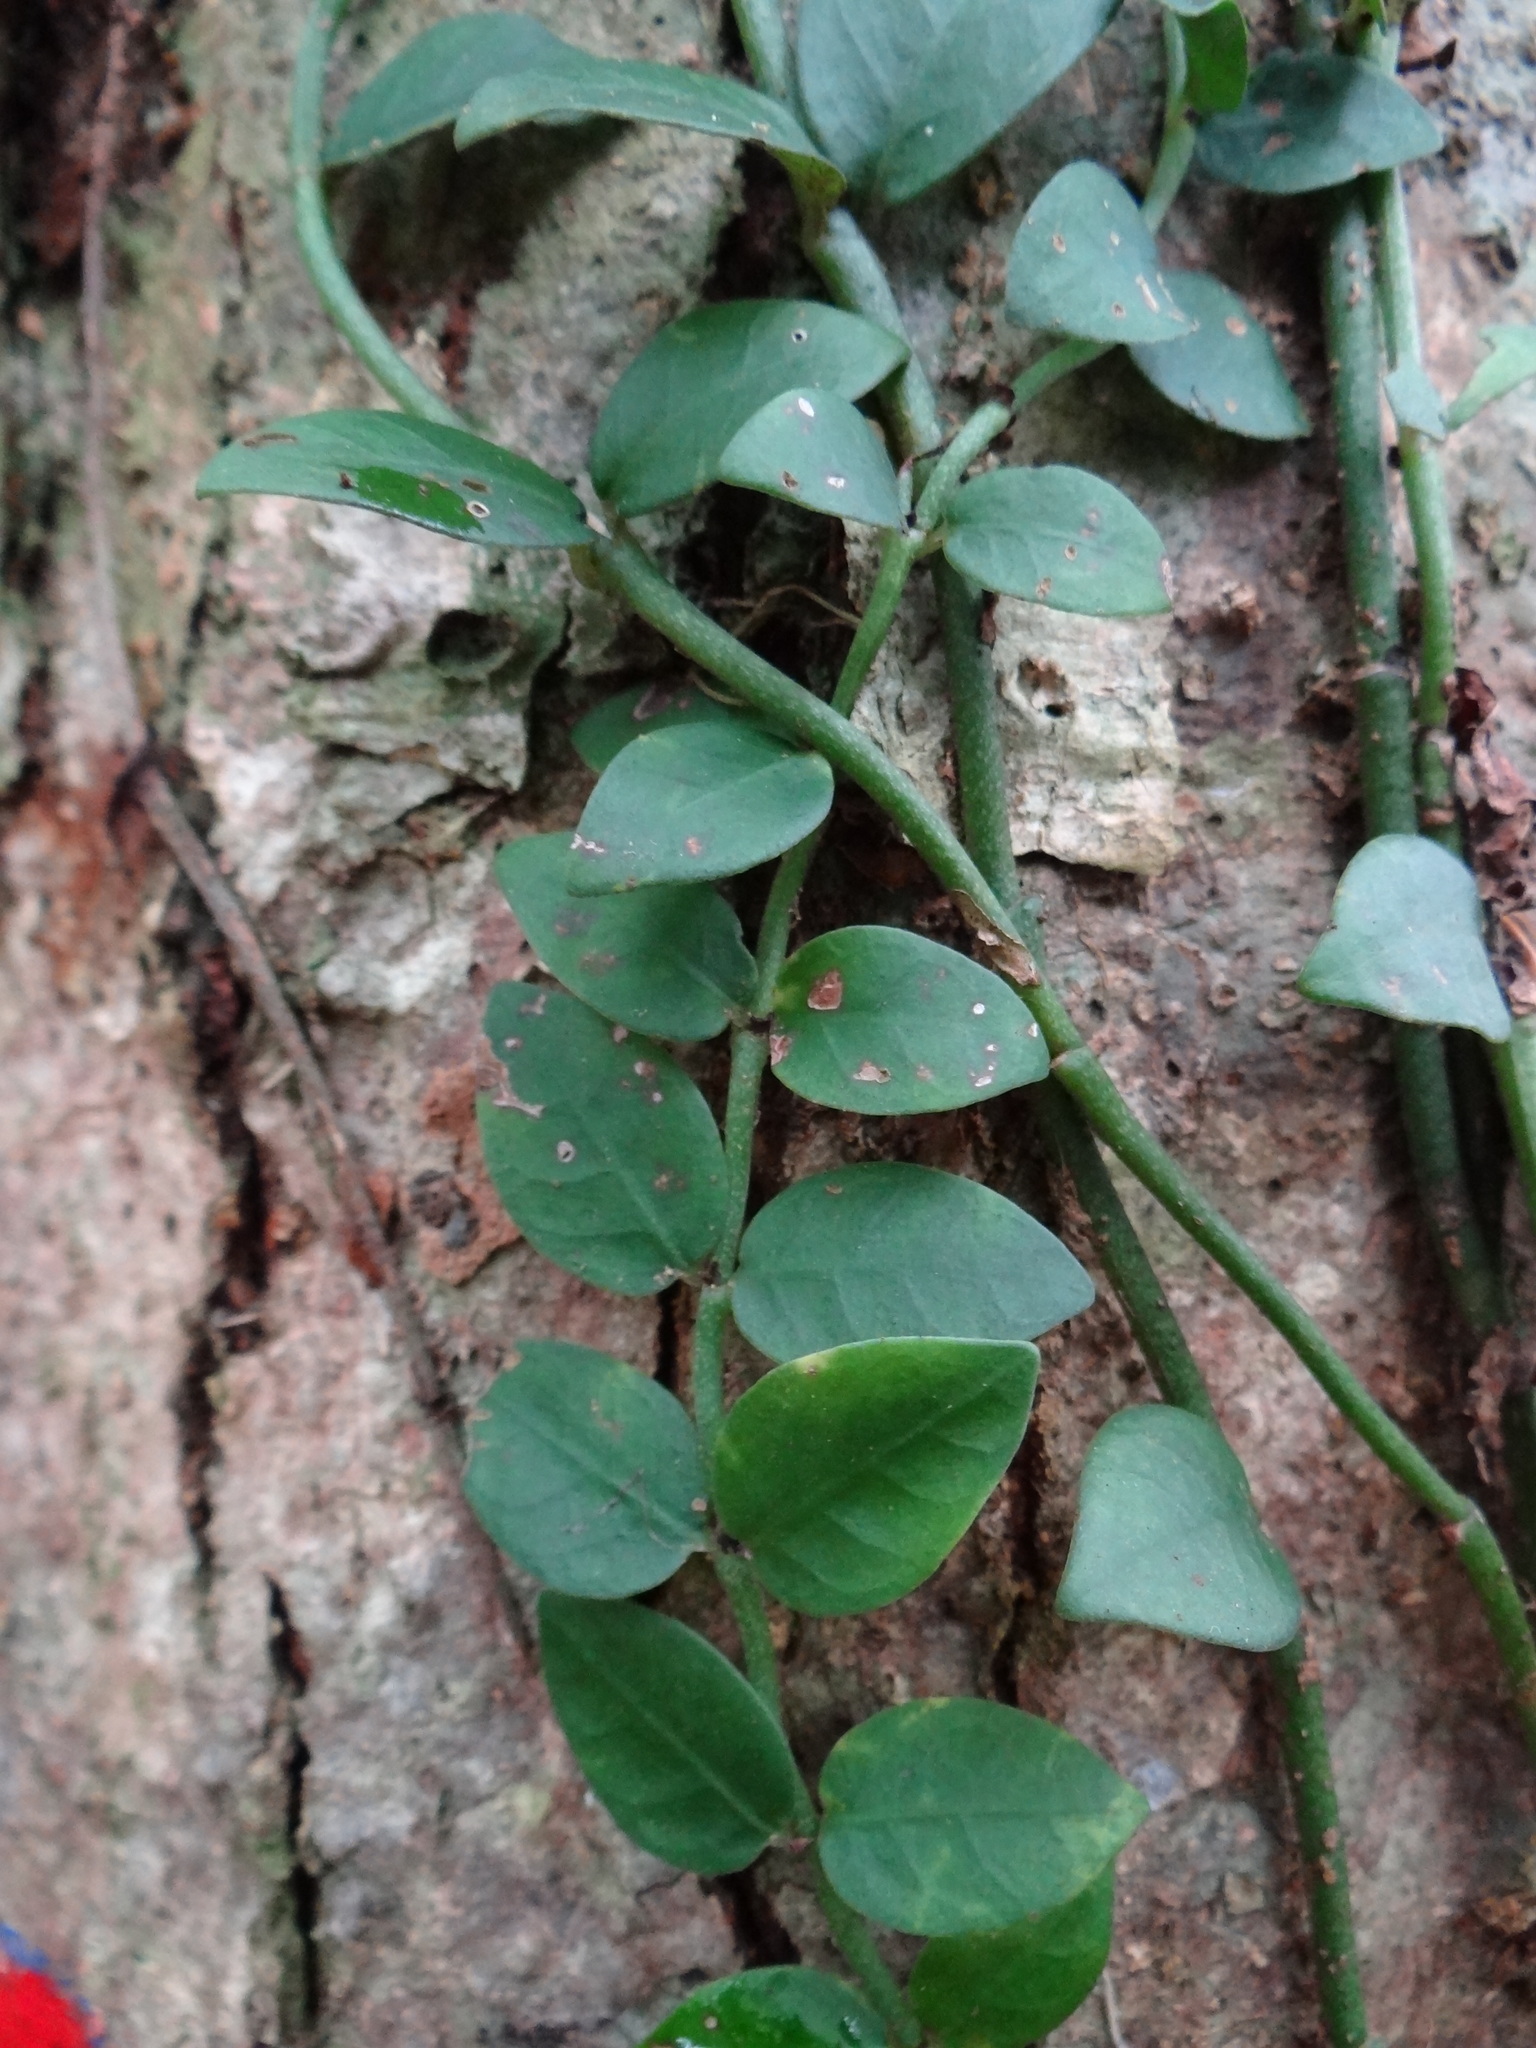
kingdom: Plantae
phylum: Tracheophyta
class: Magnoliopsida
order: Gentianales
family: Rubiaceae
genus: Psychotria
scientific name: Psychotria serpens
